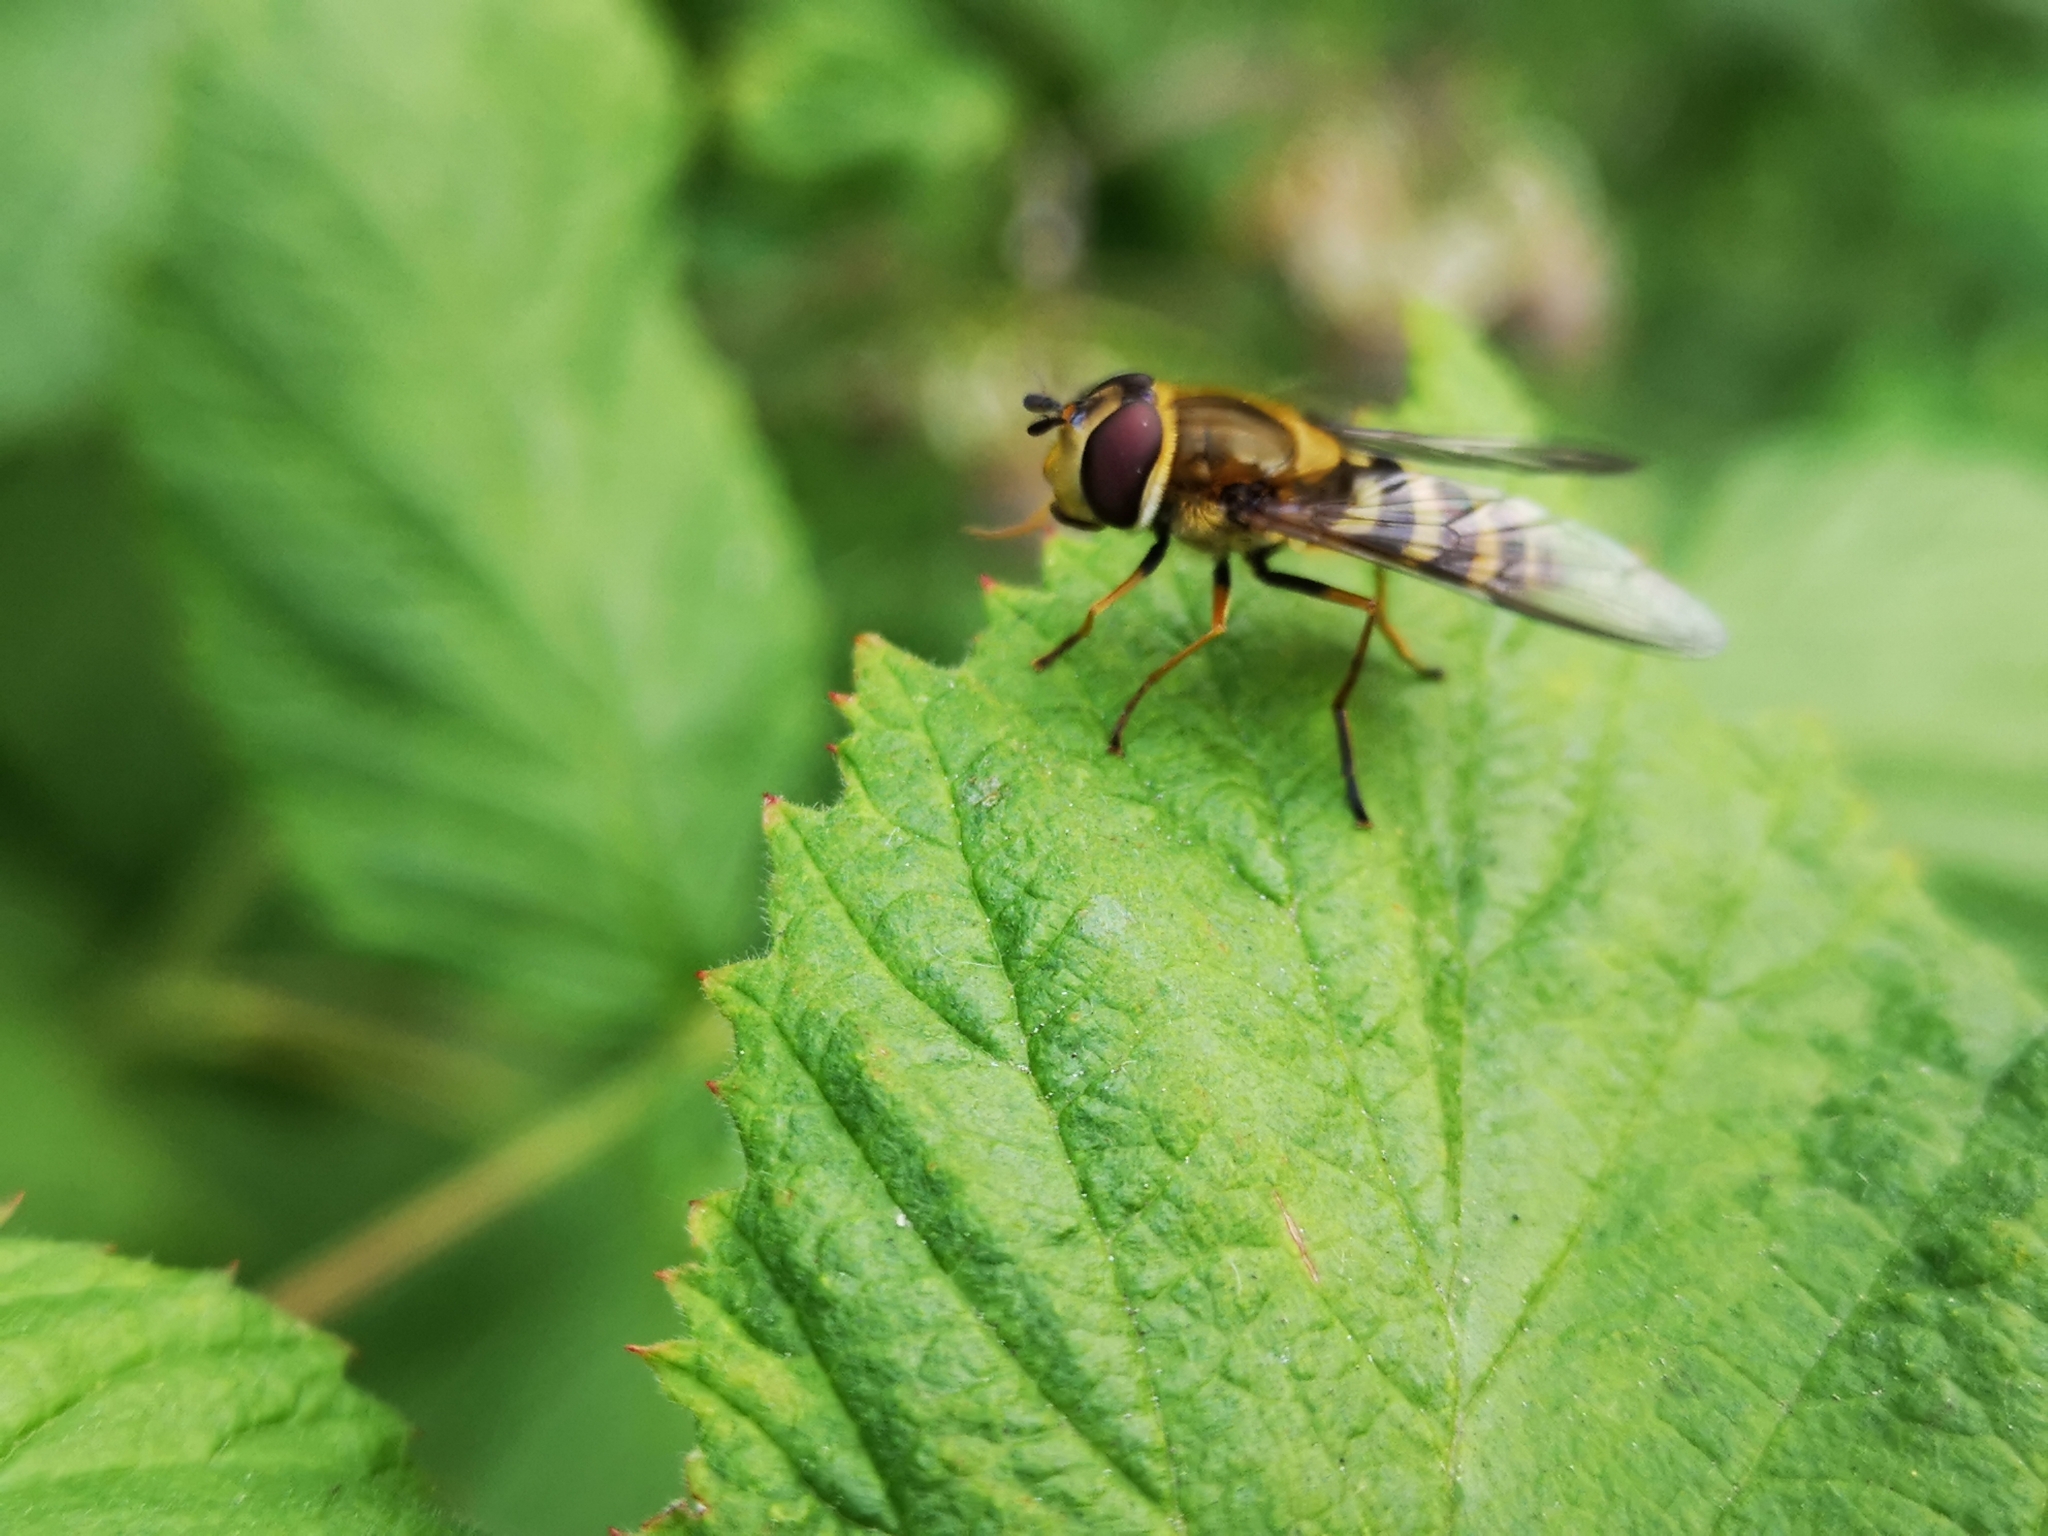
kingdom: Animalia
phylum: Arthropoda
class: Insecta
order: Diptera
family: Syrphidae
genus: Syrphus
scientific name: Syrphus
